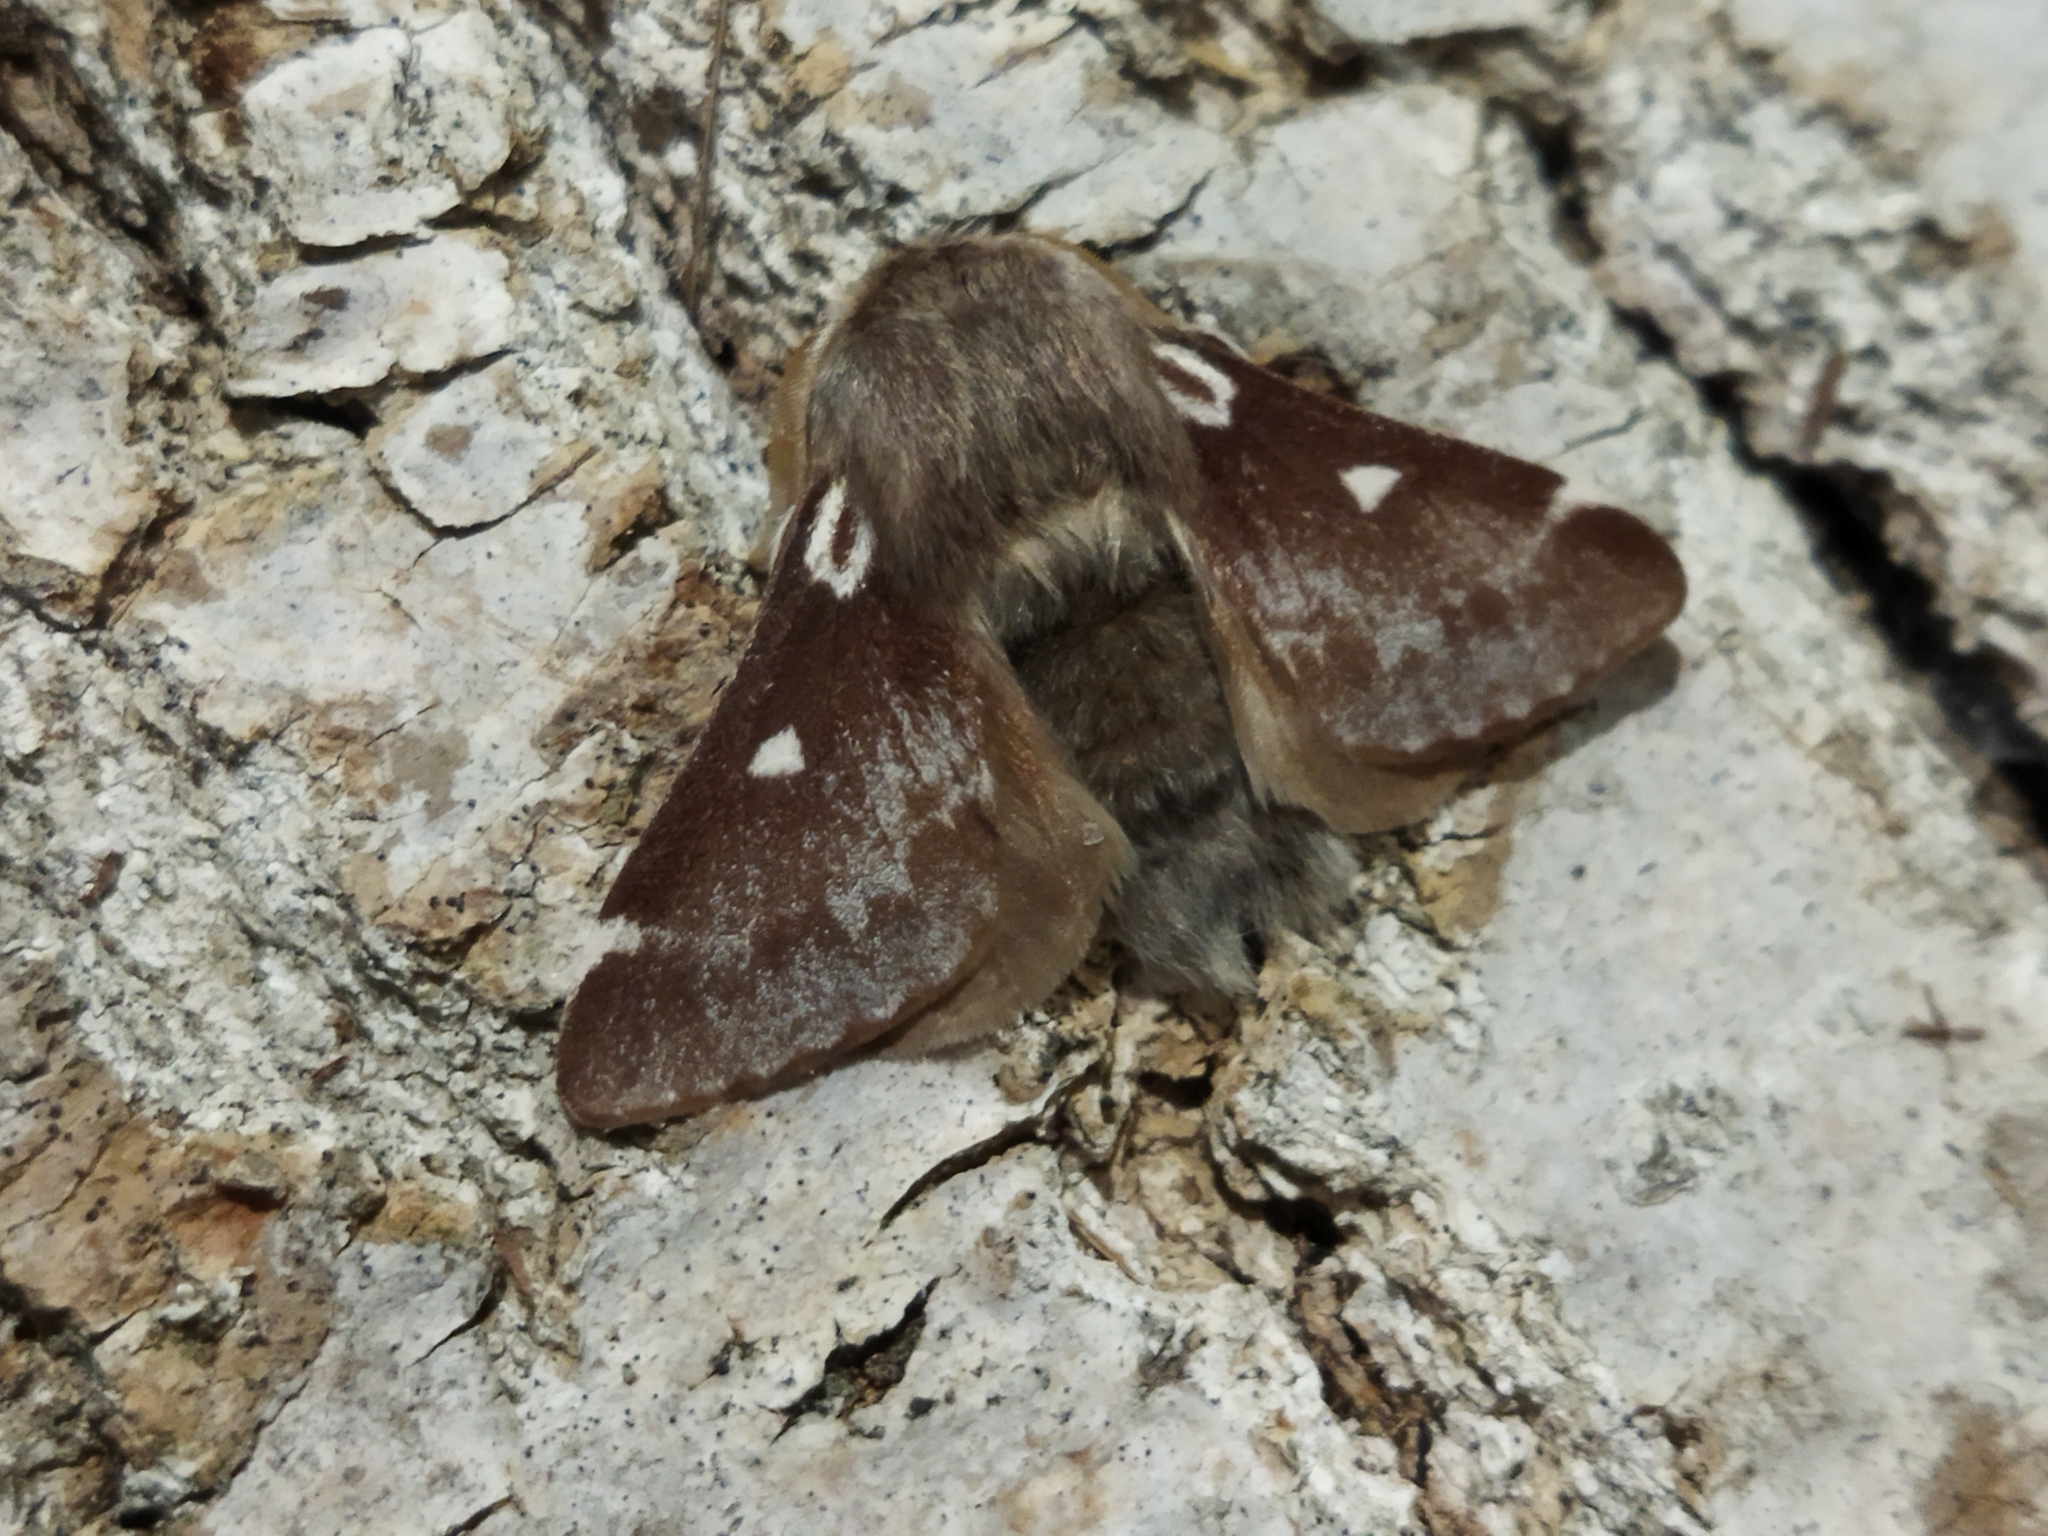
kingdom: Animalia
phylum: Arthropoda
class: Insecta
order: Lepidoptera
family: Lasiocampidae
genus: Eriogaster
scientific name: Eriogaster lanestris
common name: Small eggar
